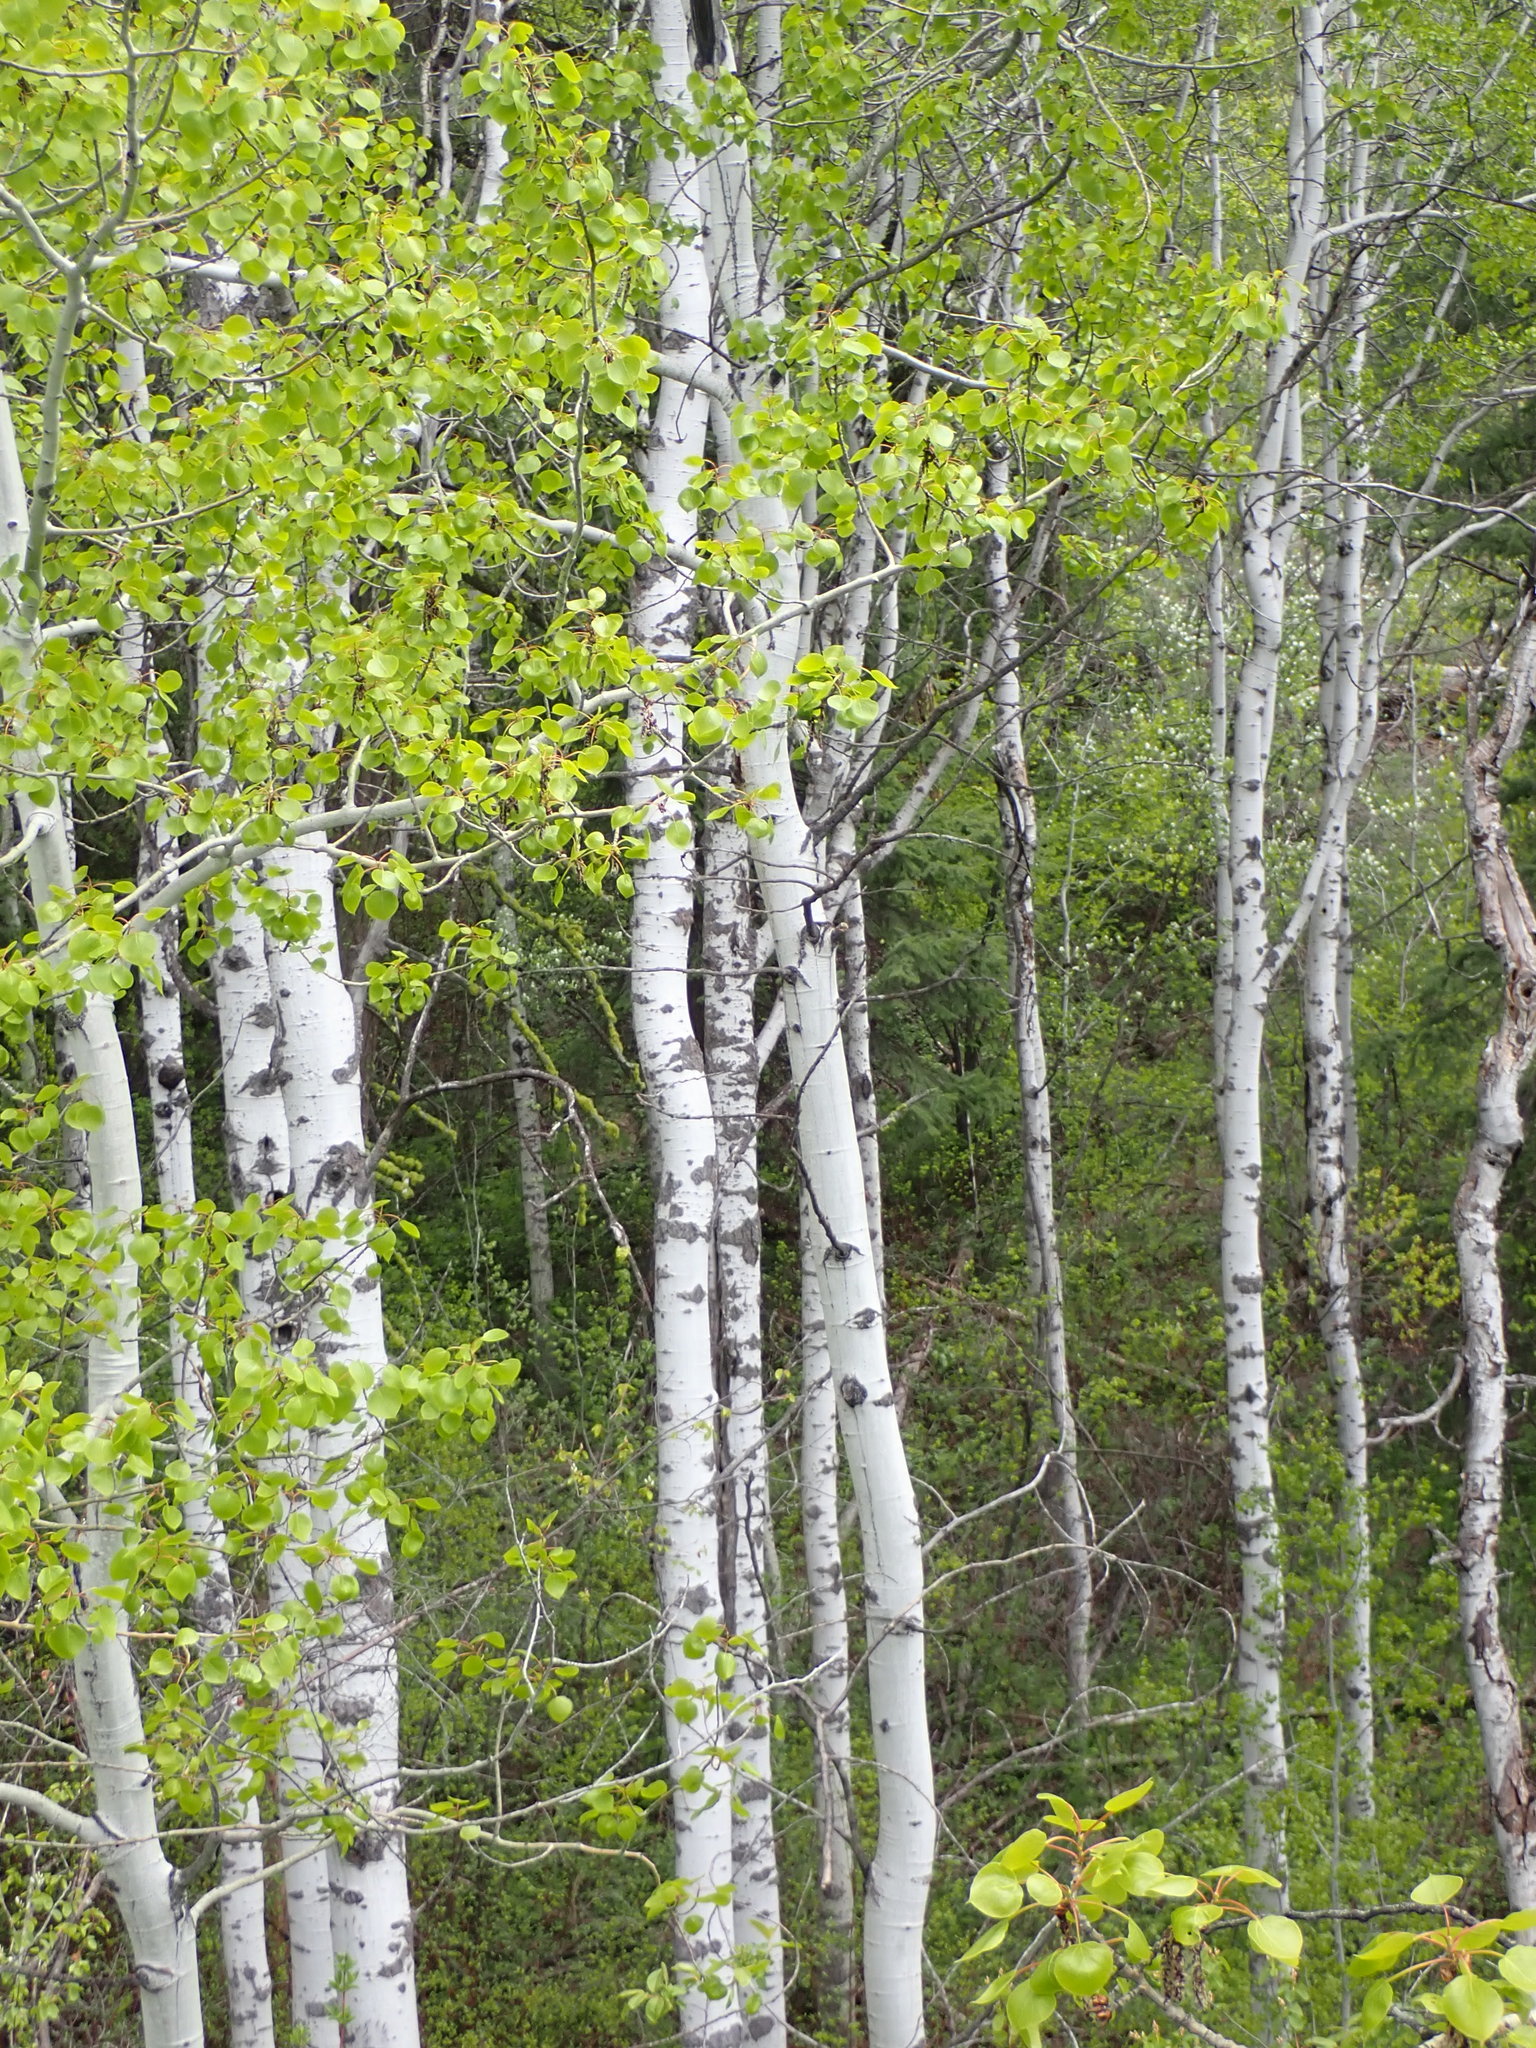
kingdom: Plantae
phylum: Tracheophyta
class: Magnoliopsida
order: Malpighiales
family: Salicaceae
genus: Populus
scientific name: Populus tremuloides
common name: Quaking aspen
